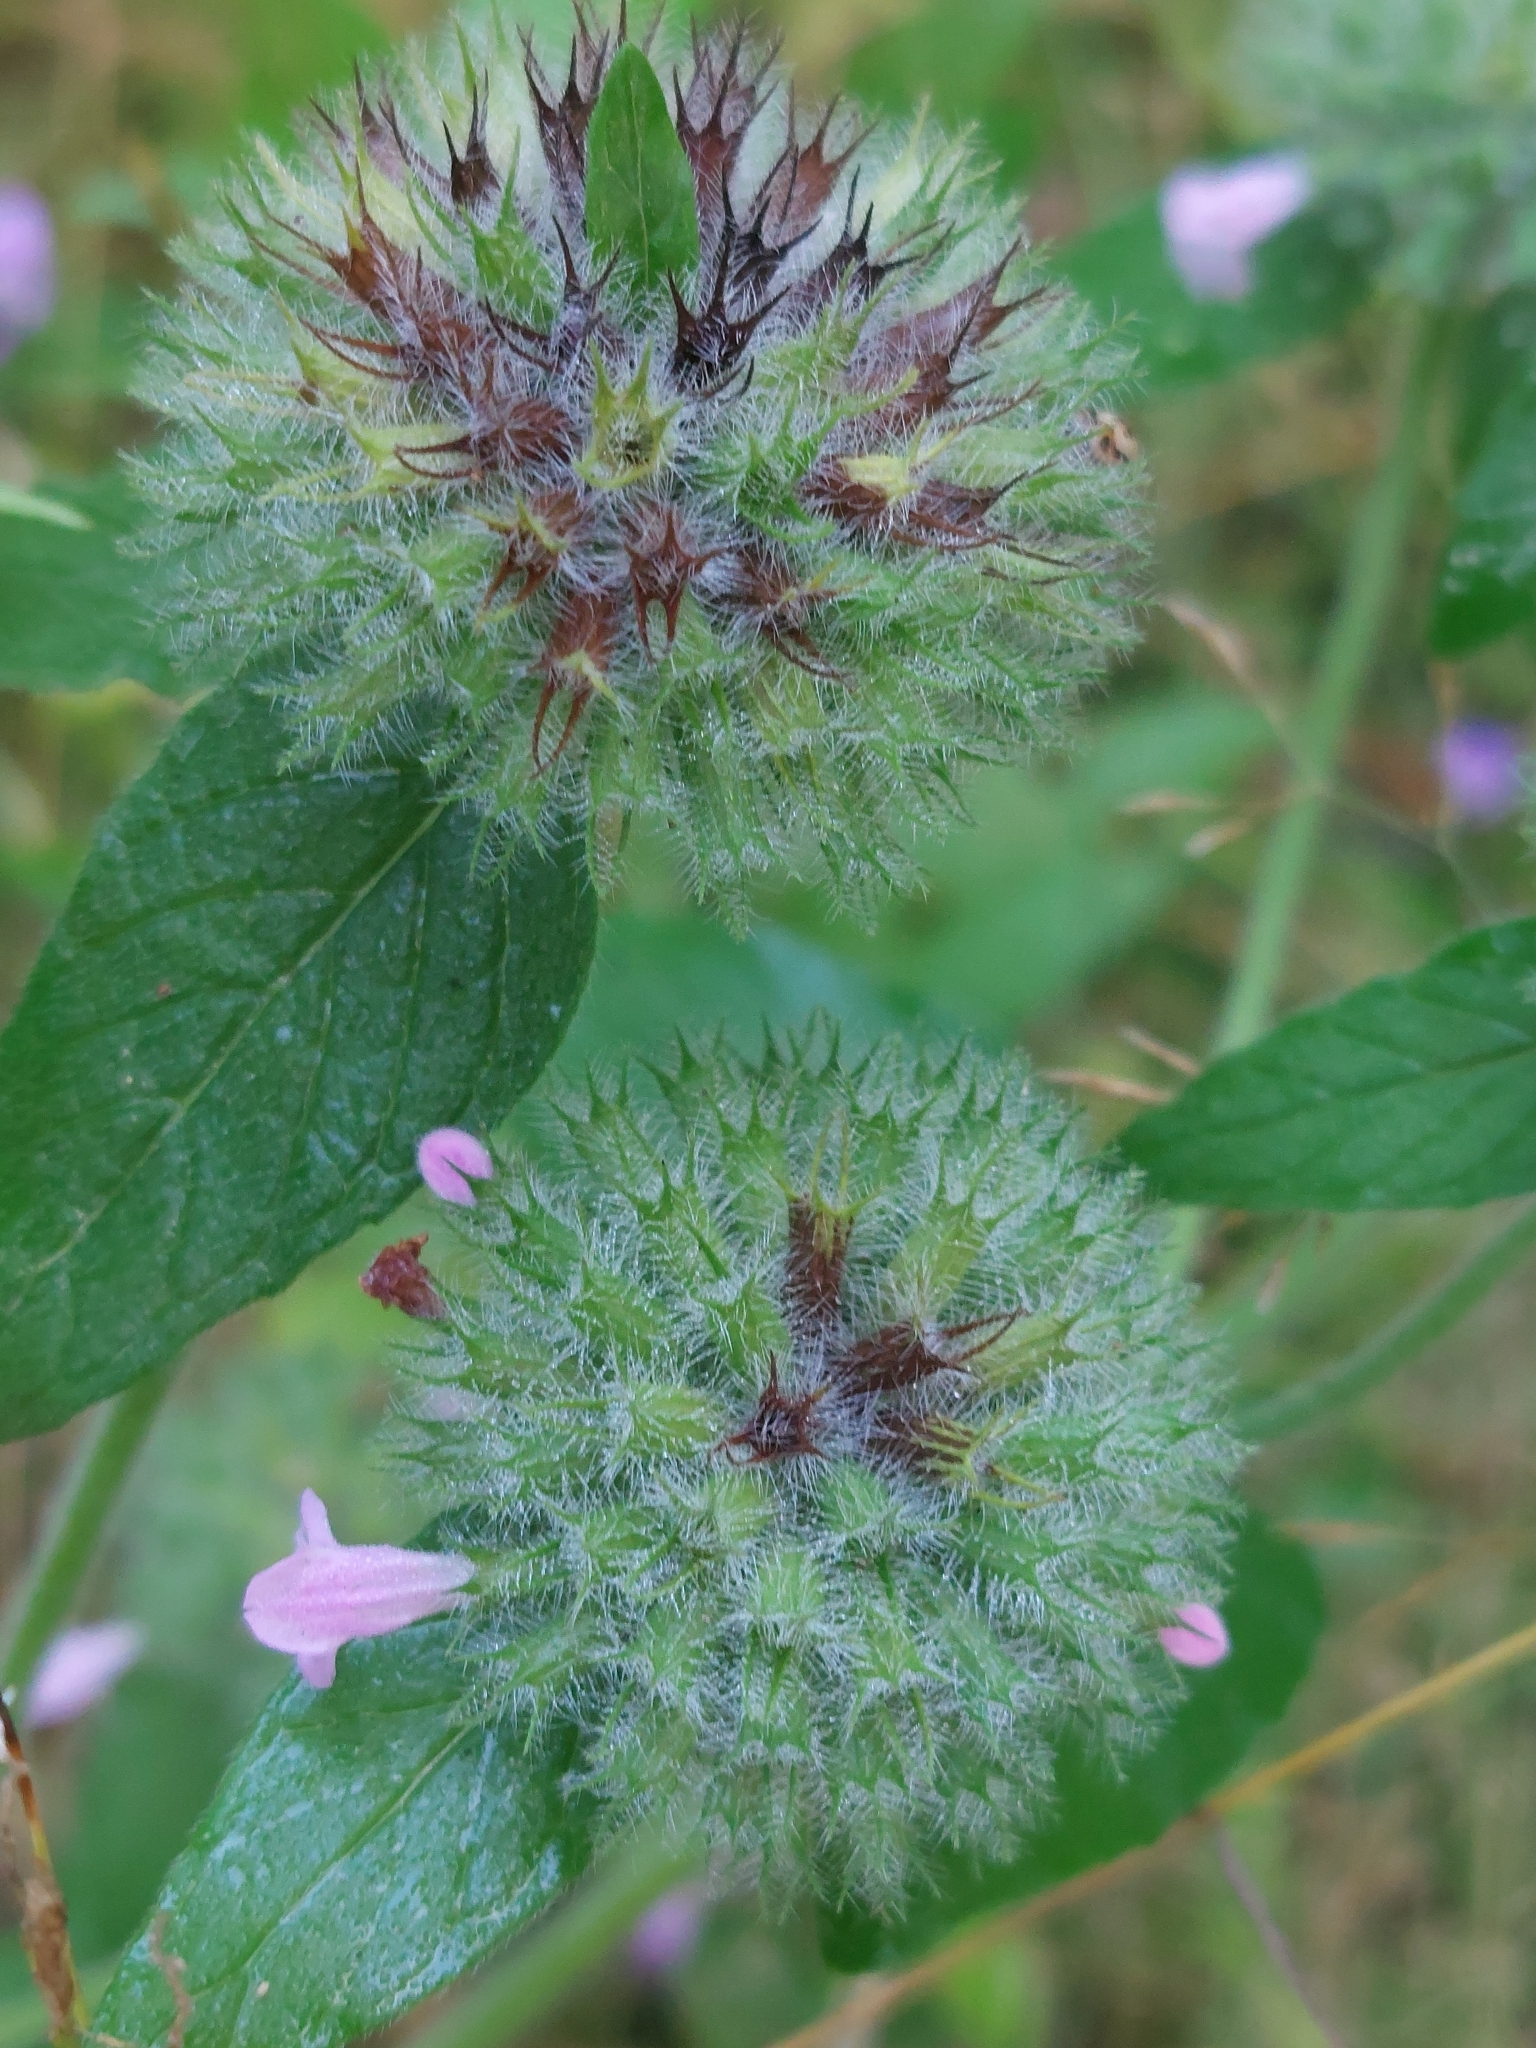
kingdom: Plantae
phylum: Tracheophyta
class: Magnoliopsida
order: Lamiales
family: Lamiaceae
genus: Clinopodium
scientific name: Clinopodium vulgare
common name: Wild basil
